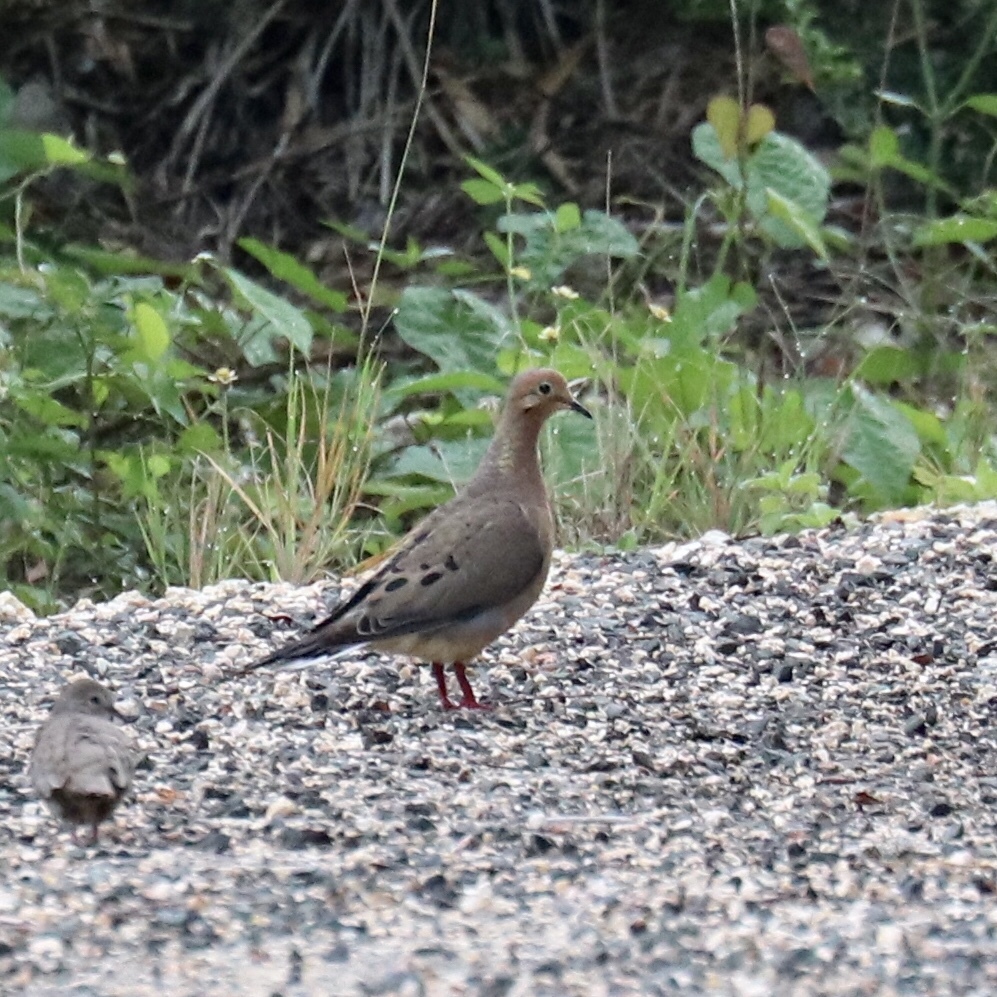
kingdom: Animalia
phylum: Chordata
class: Aves
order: Columbiformes
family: Columbidae
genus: Zenaida
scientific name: Zenaida macroura
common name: Mourning dove
